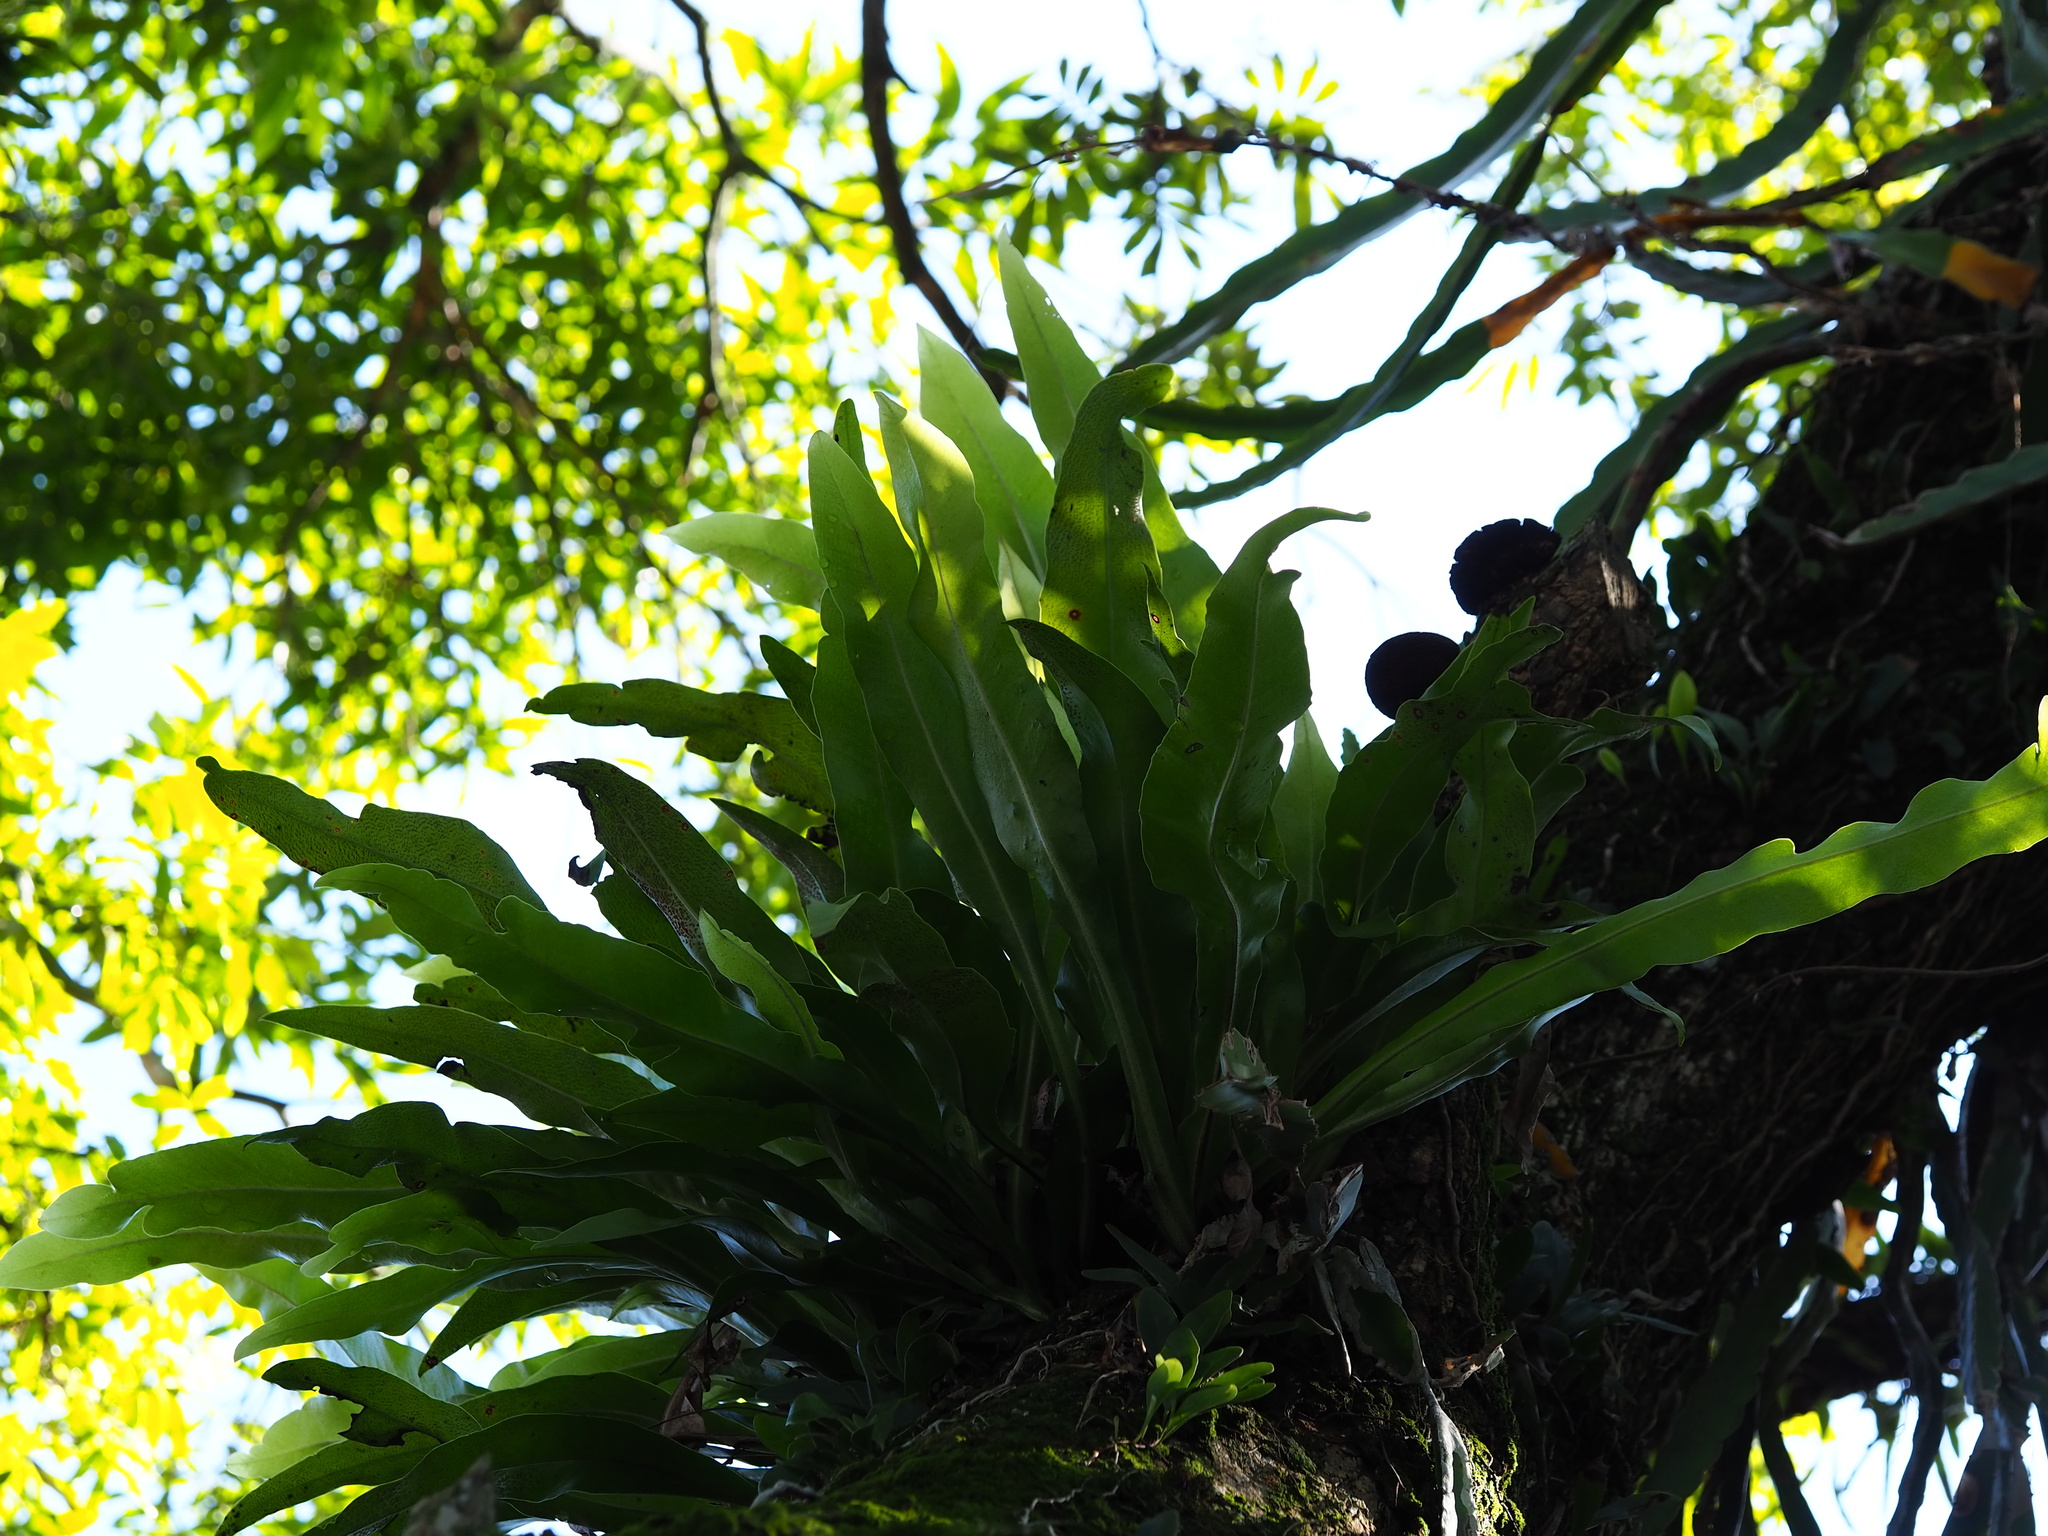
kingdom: Plantae
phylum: Tracheophyta
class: Polypodiopsida
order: Polypodiales
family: Polypodiaceae
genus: Microsorum
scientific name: Microsorum punctatum
